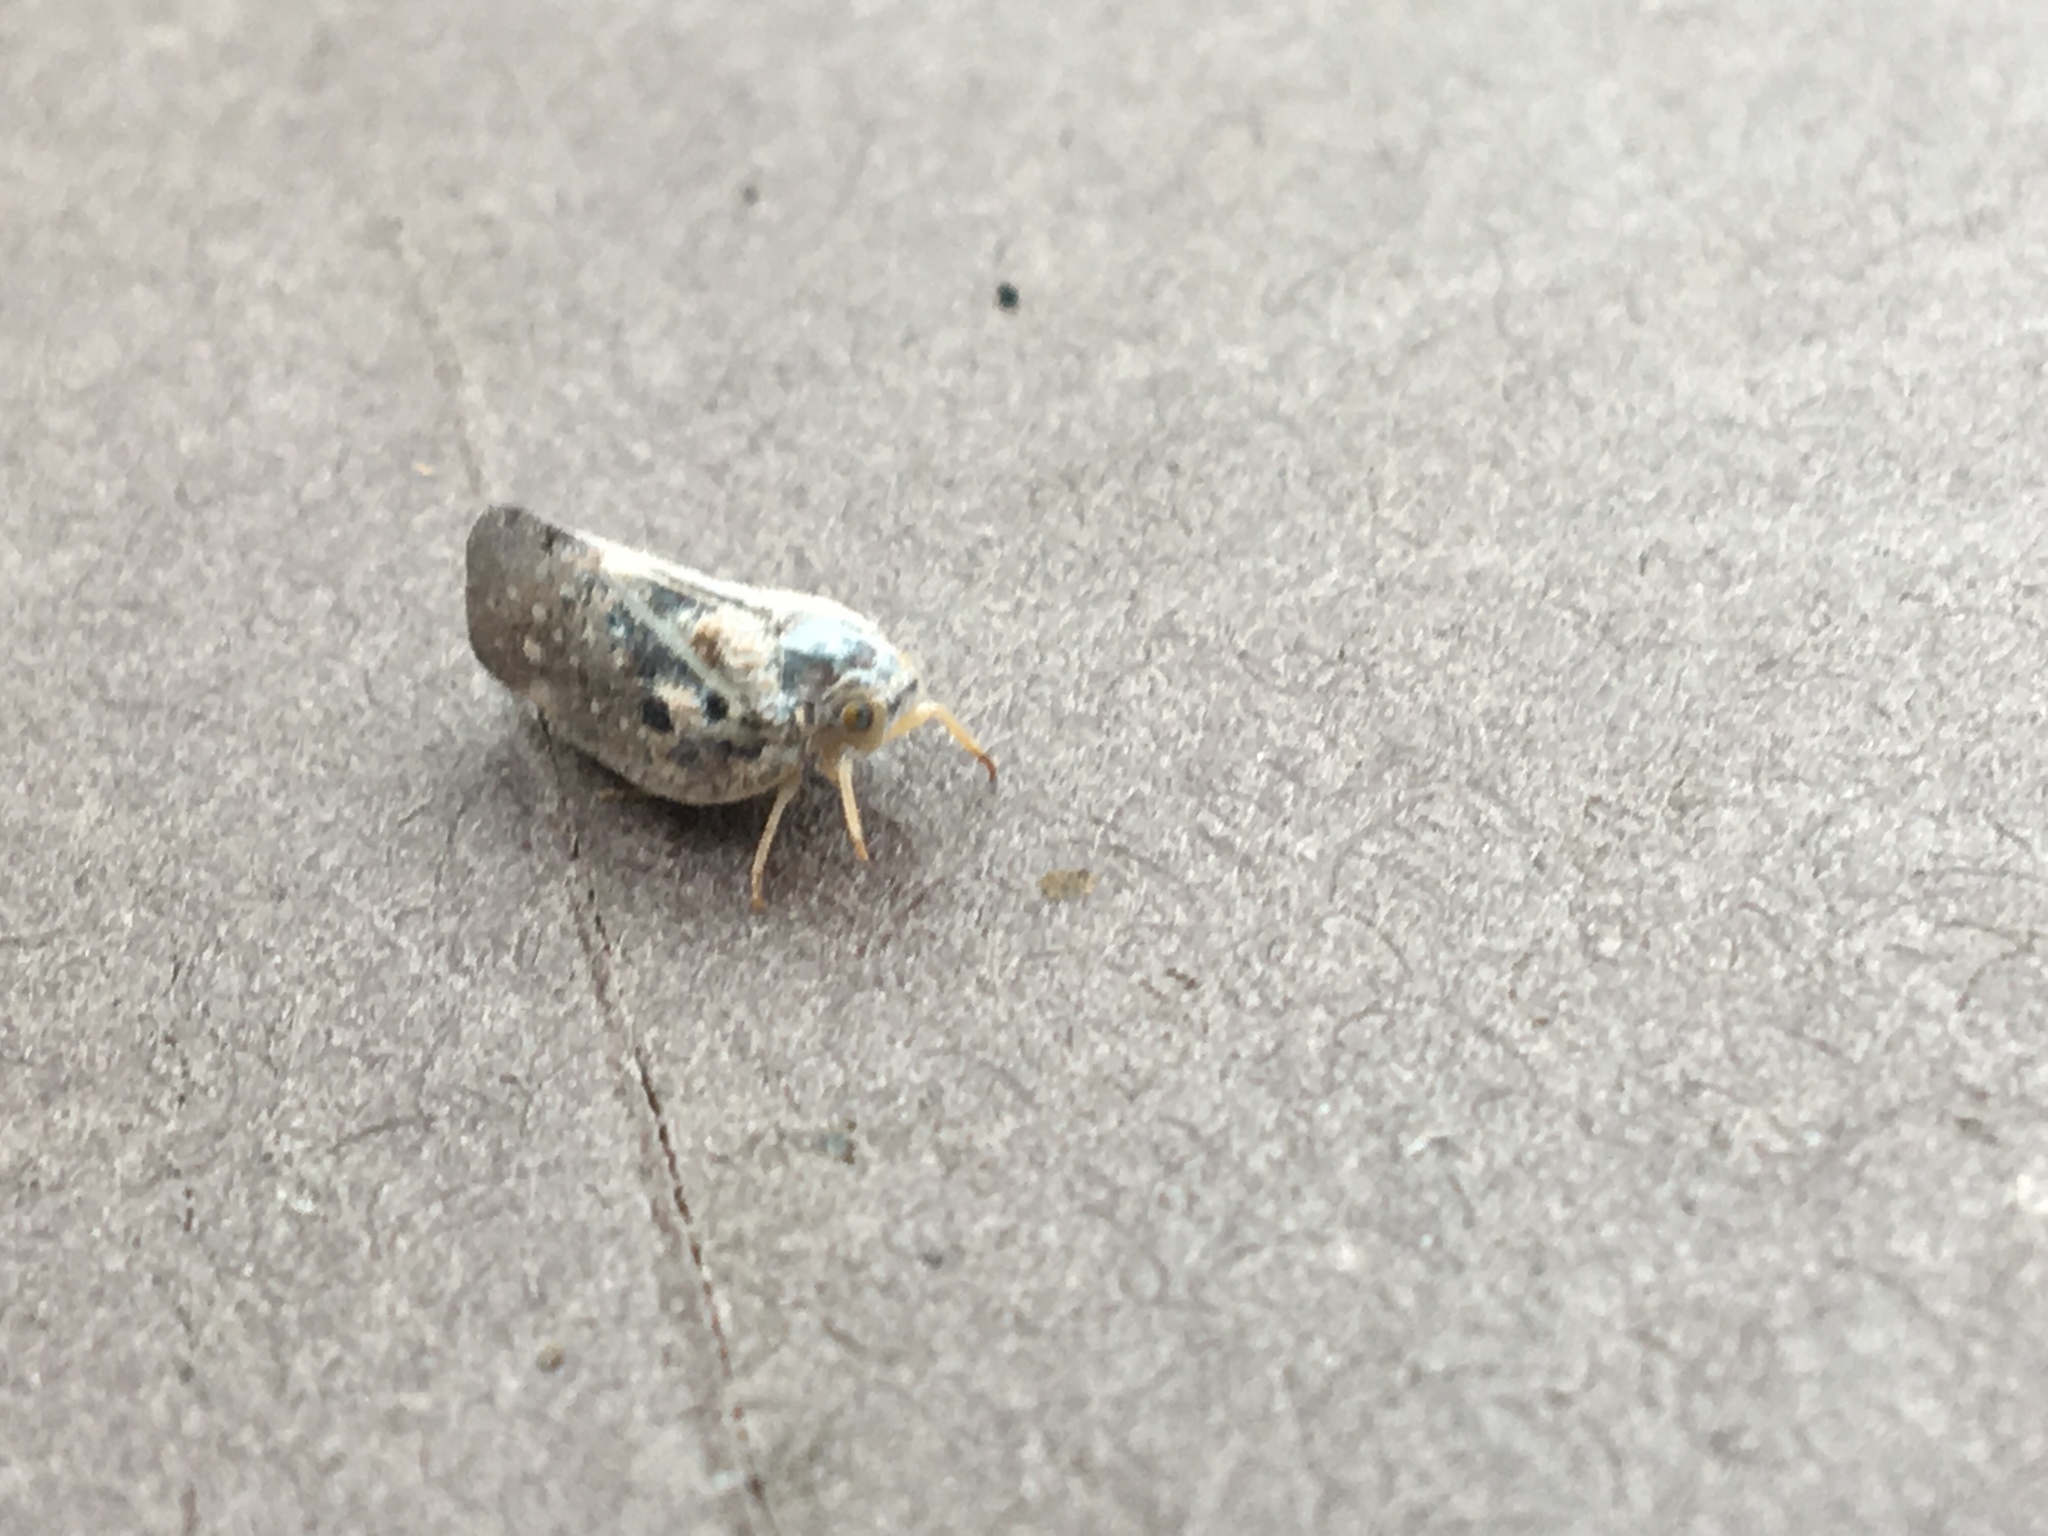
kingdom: Animalia
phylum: Arthropoda
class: Insecta
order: Hemiptera
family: Flatidae
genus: Metcalfa
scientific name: Metcalfa pruinosa
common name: Citrus flatid planthopper
